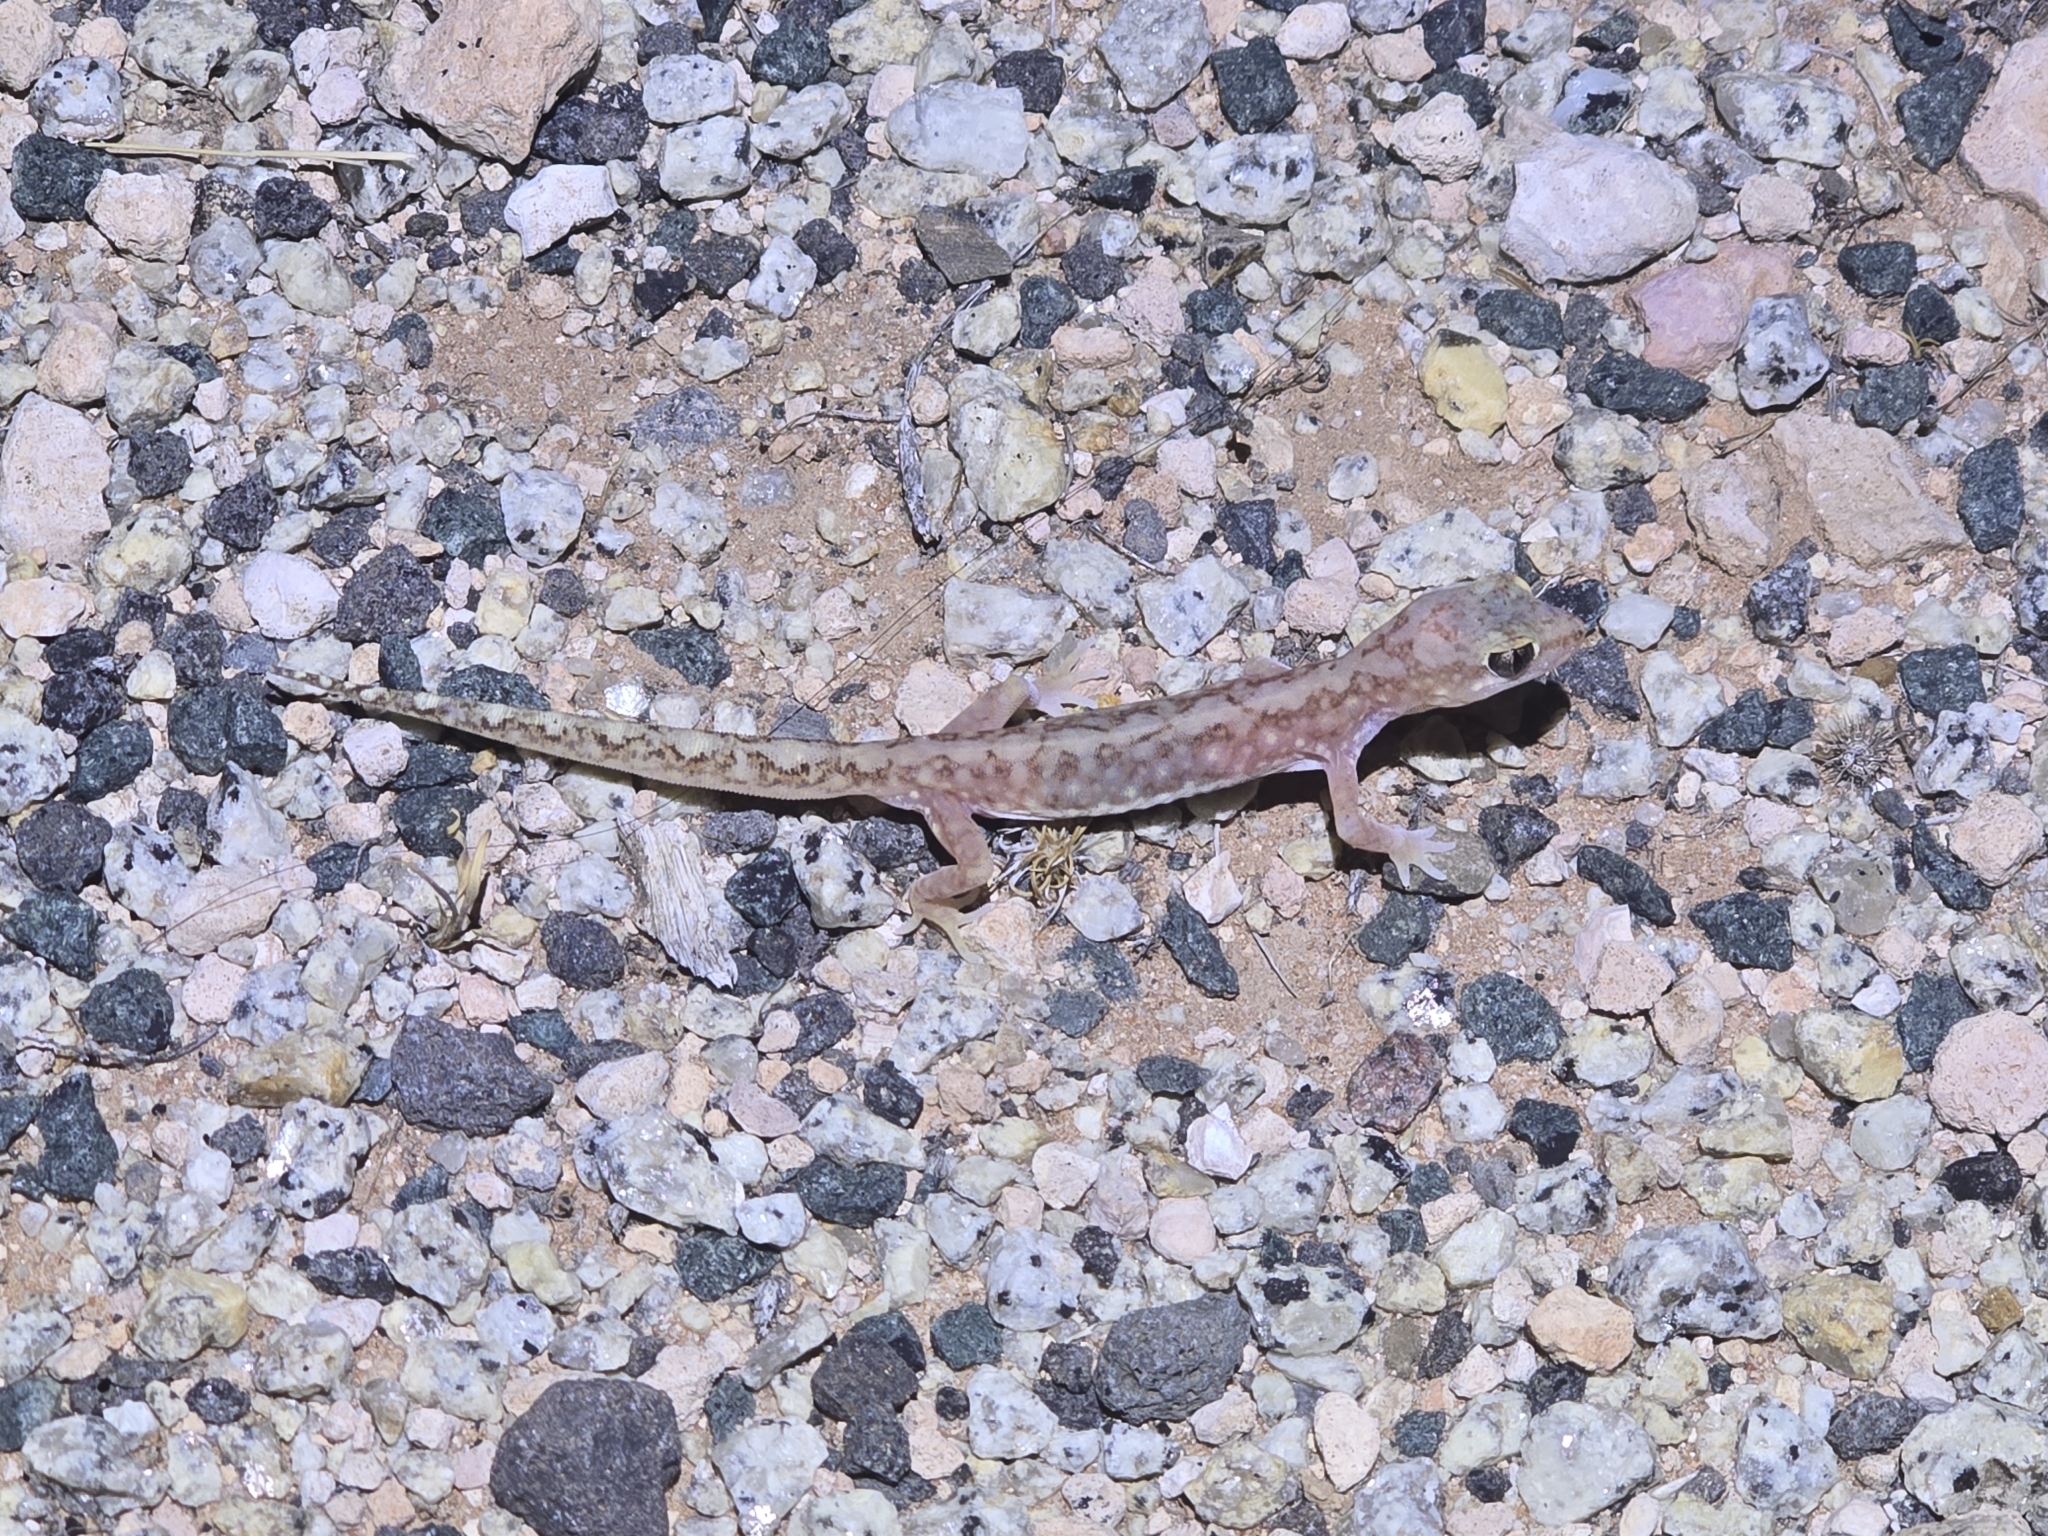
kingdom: Animalia
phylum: Chordata
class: Squamata
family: Diplodactylidae
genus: Lucasium
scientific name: Lucasium damaeum
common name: Beaded gecko
